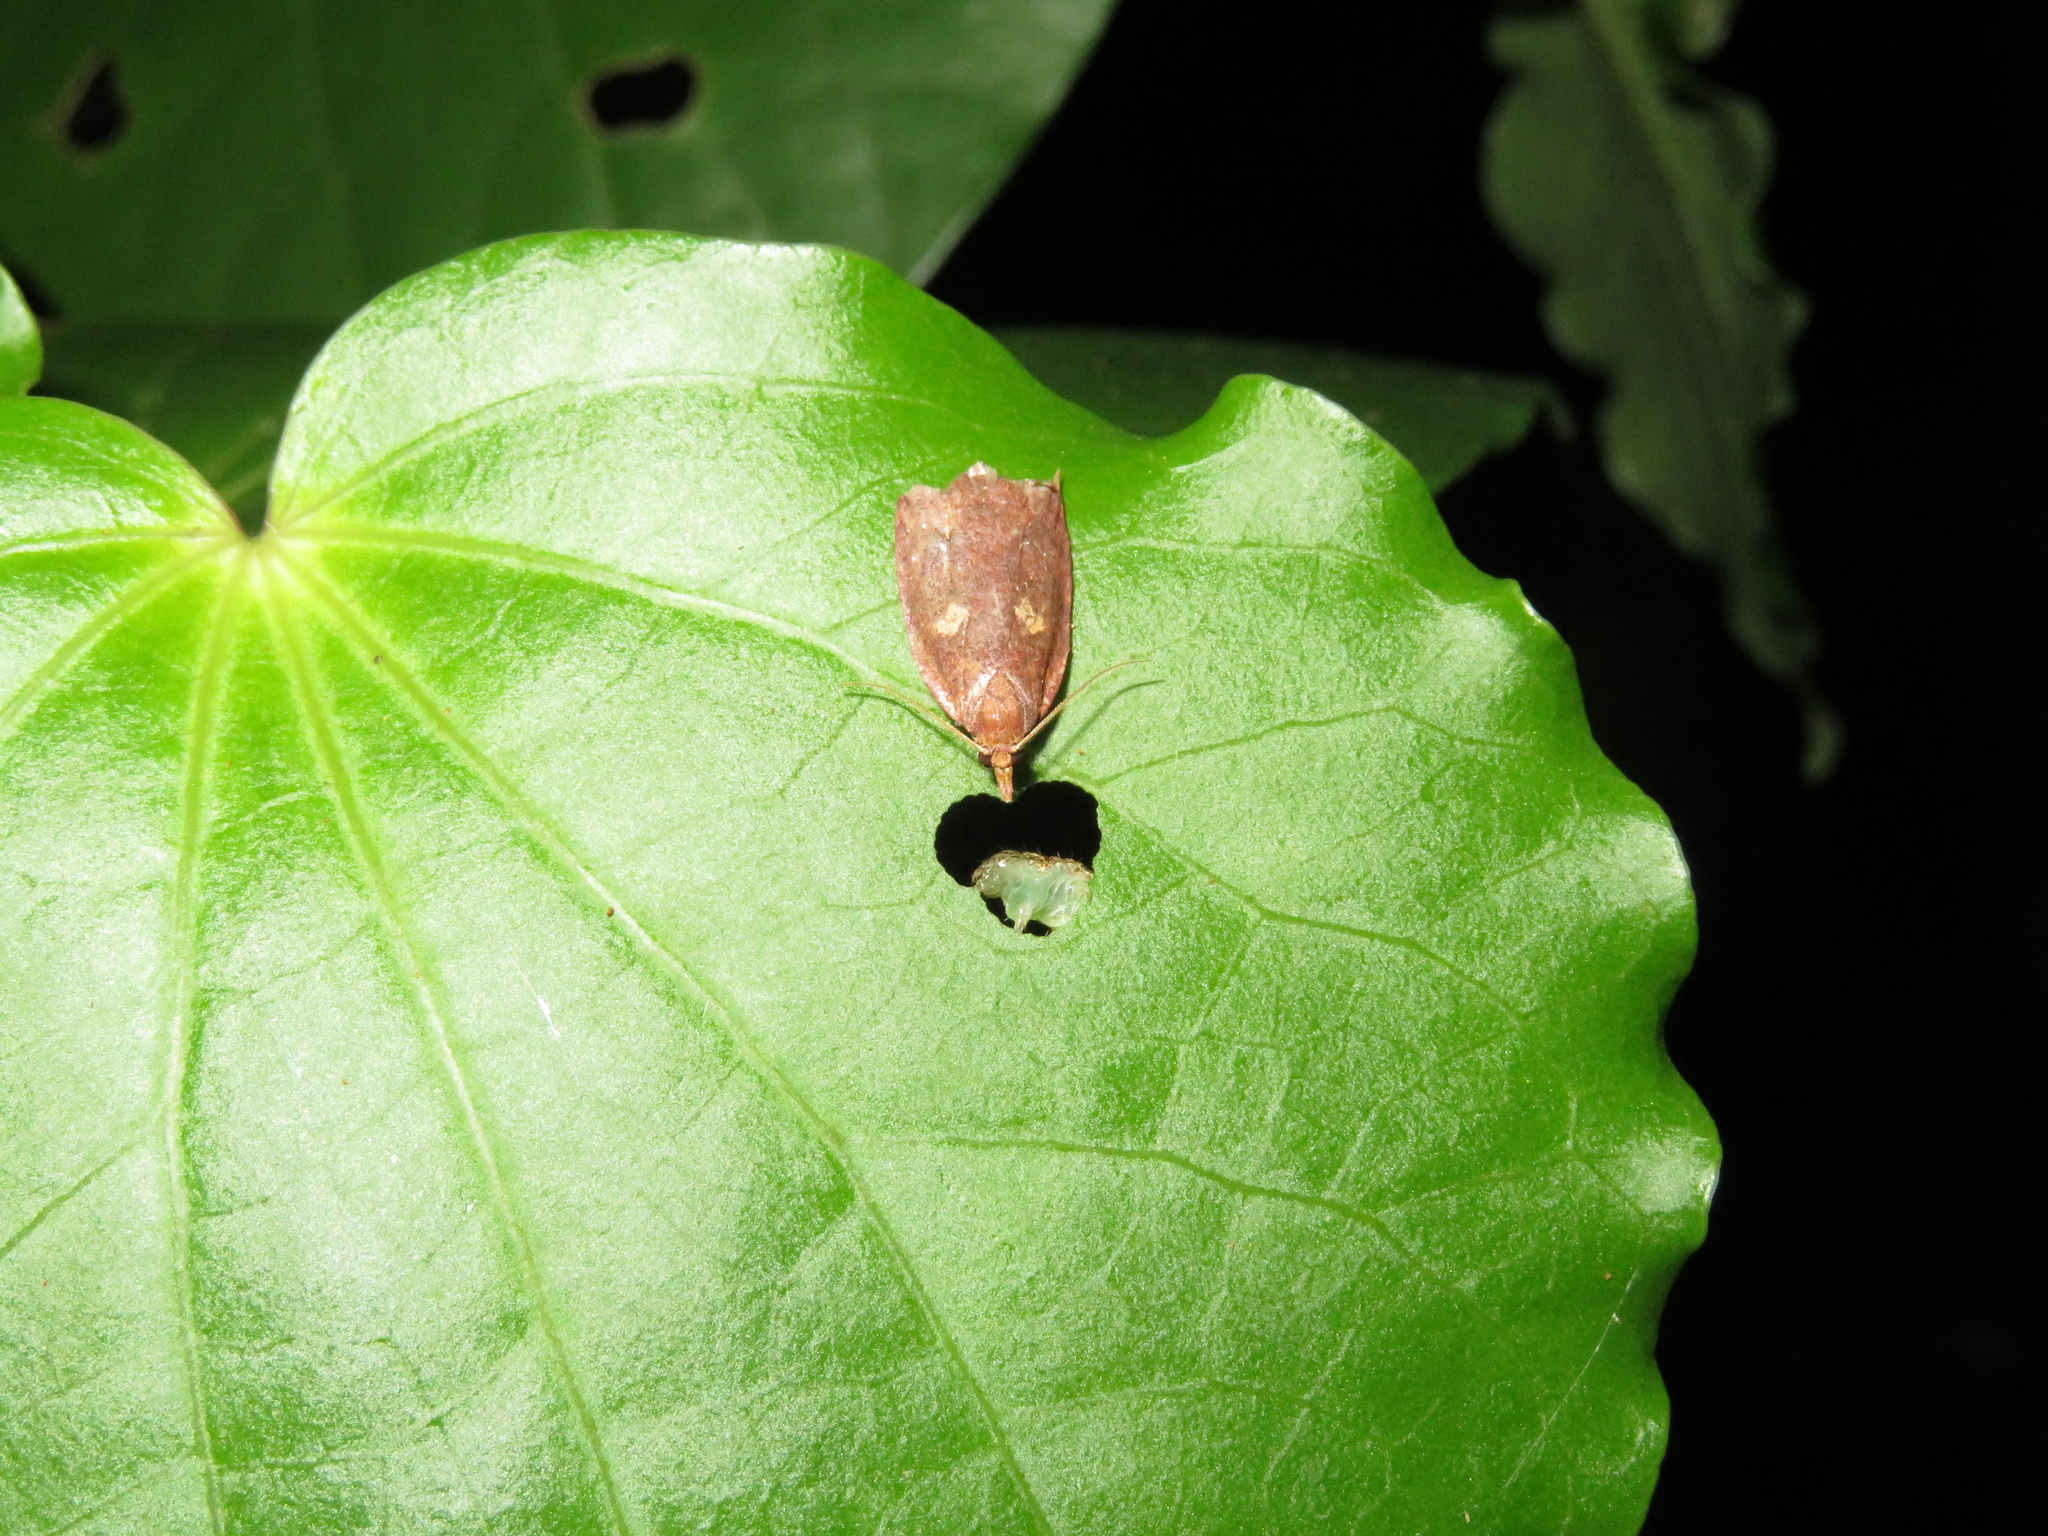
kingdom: Animalia
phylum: Arthropoda
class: Insecta
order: Lepidoptera
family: Tortricidae
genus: Planotortrix
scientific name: Planotortrix excessana
